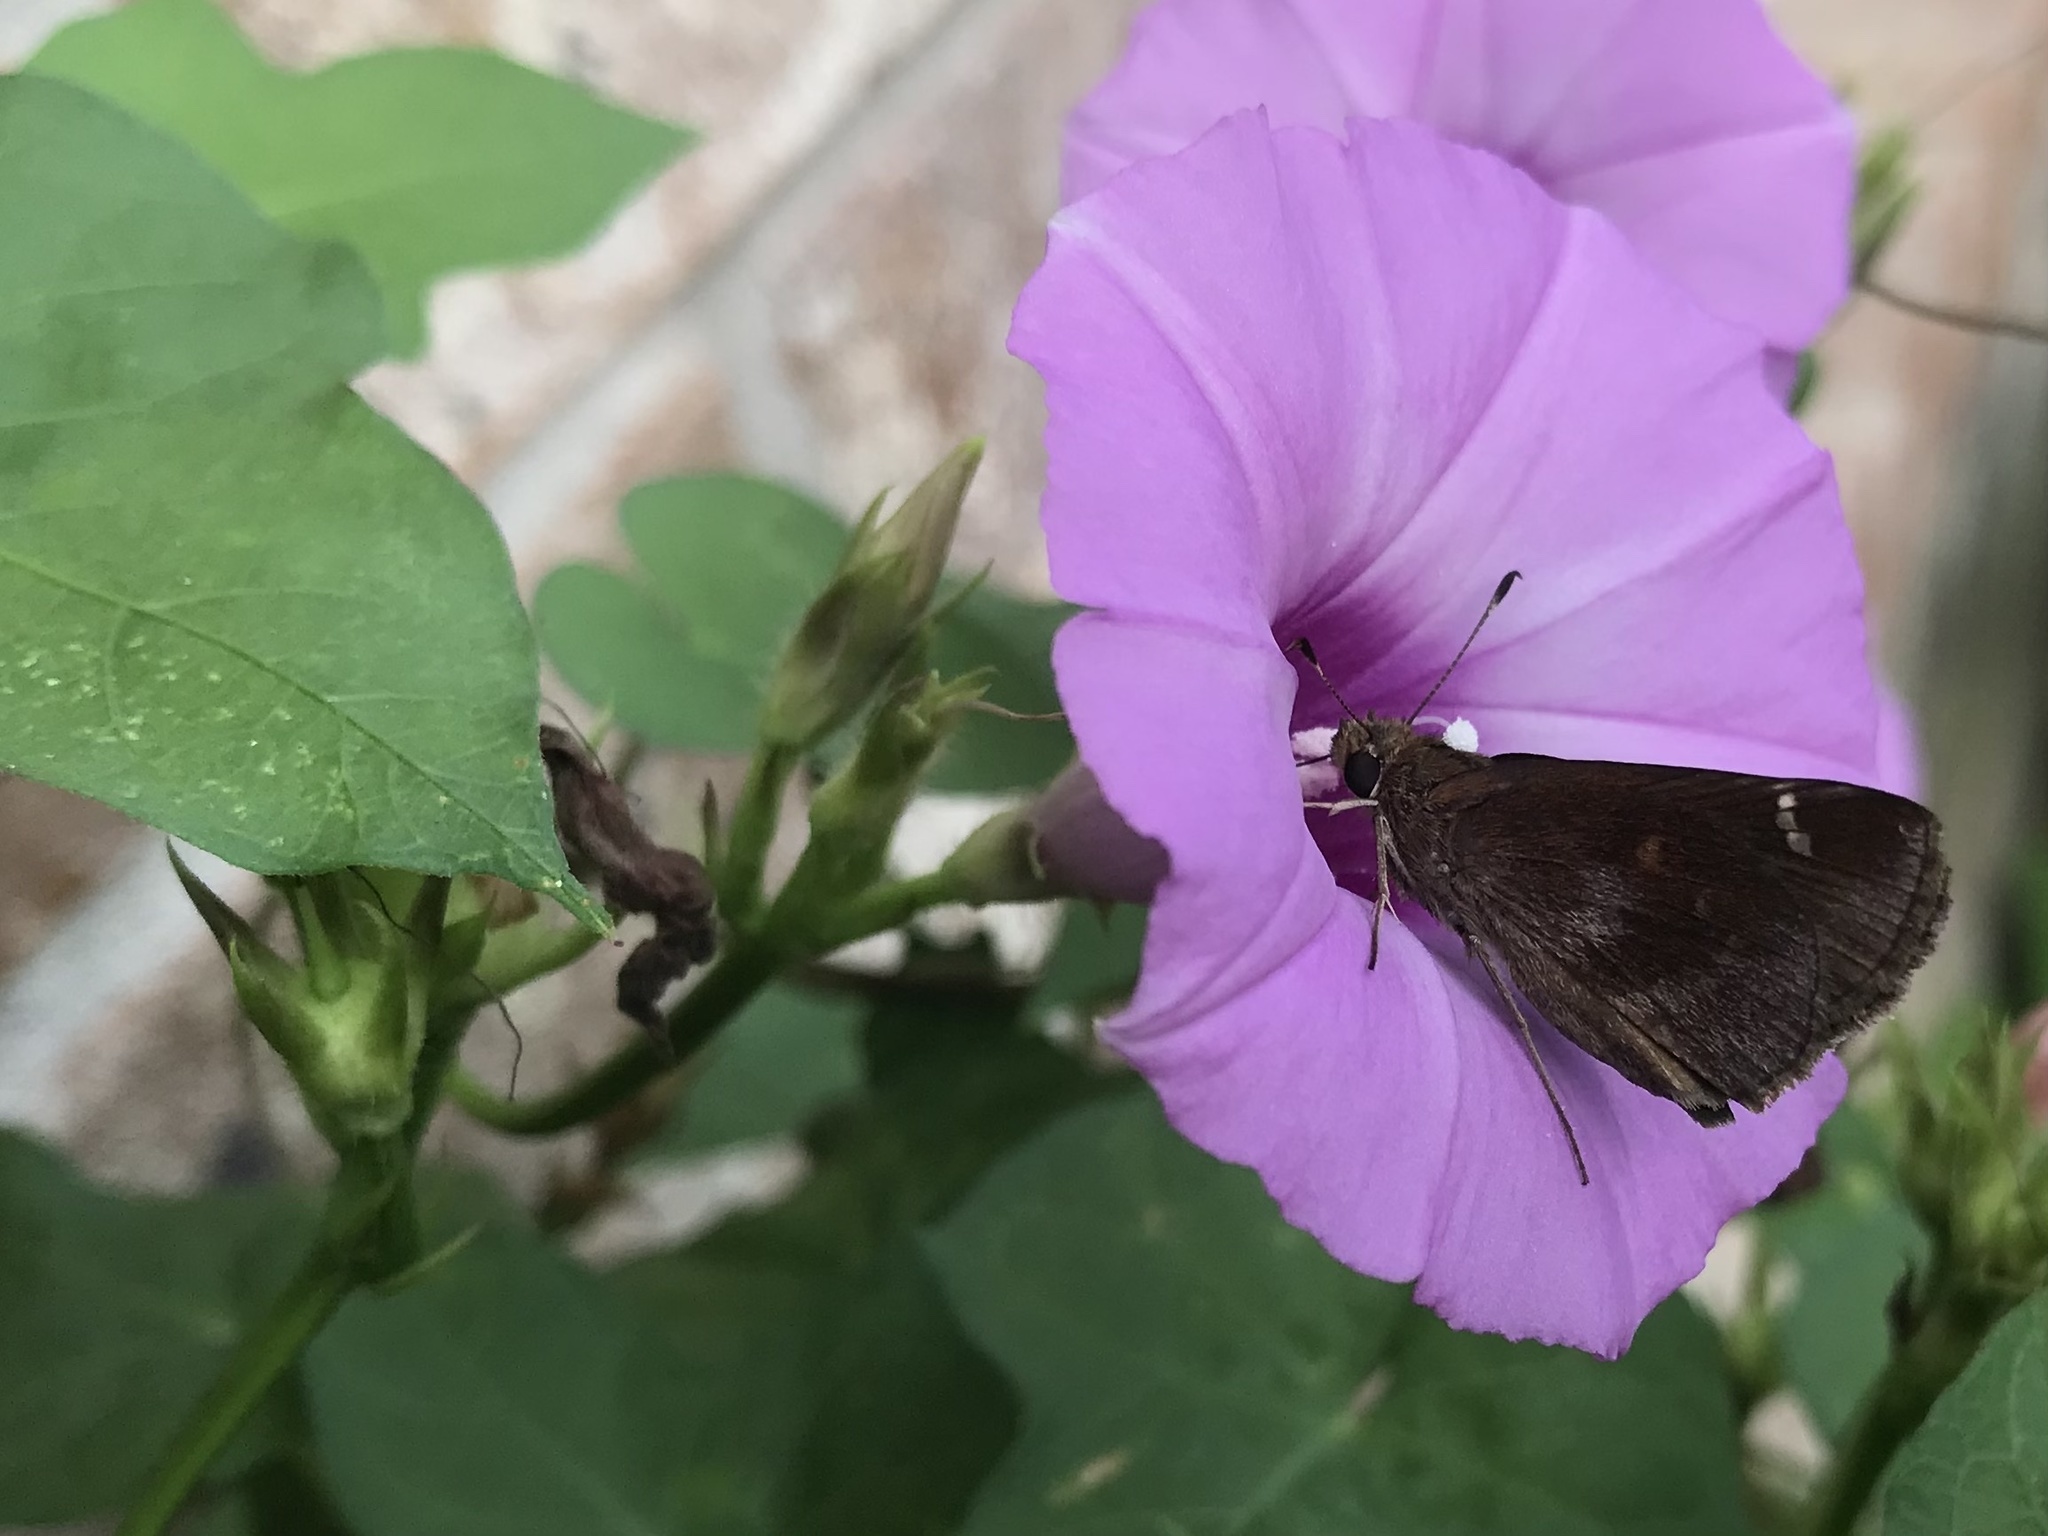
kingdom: Animalia
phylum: Arthropoda
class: Insecta
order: Lepidoptera
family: Hesperiidae
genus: Lerema
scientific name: Lerema accius
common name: Clouded skipper
